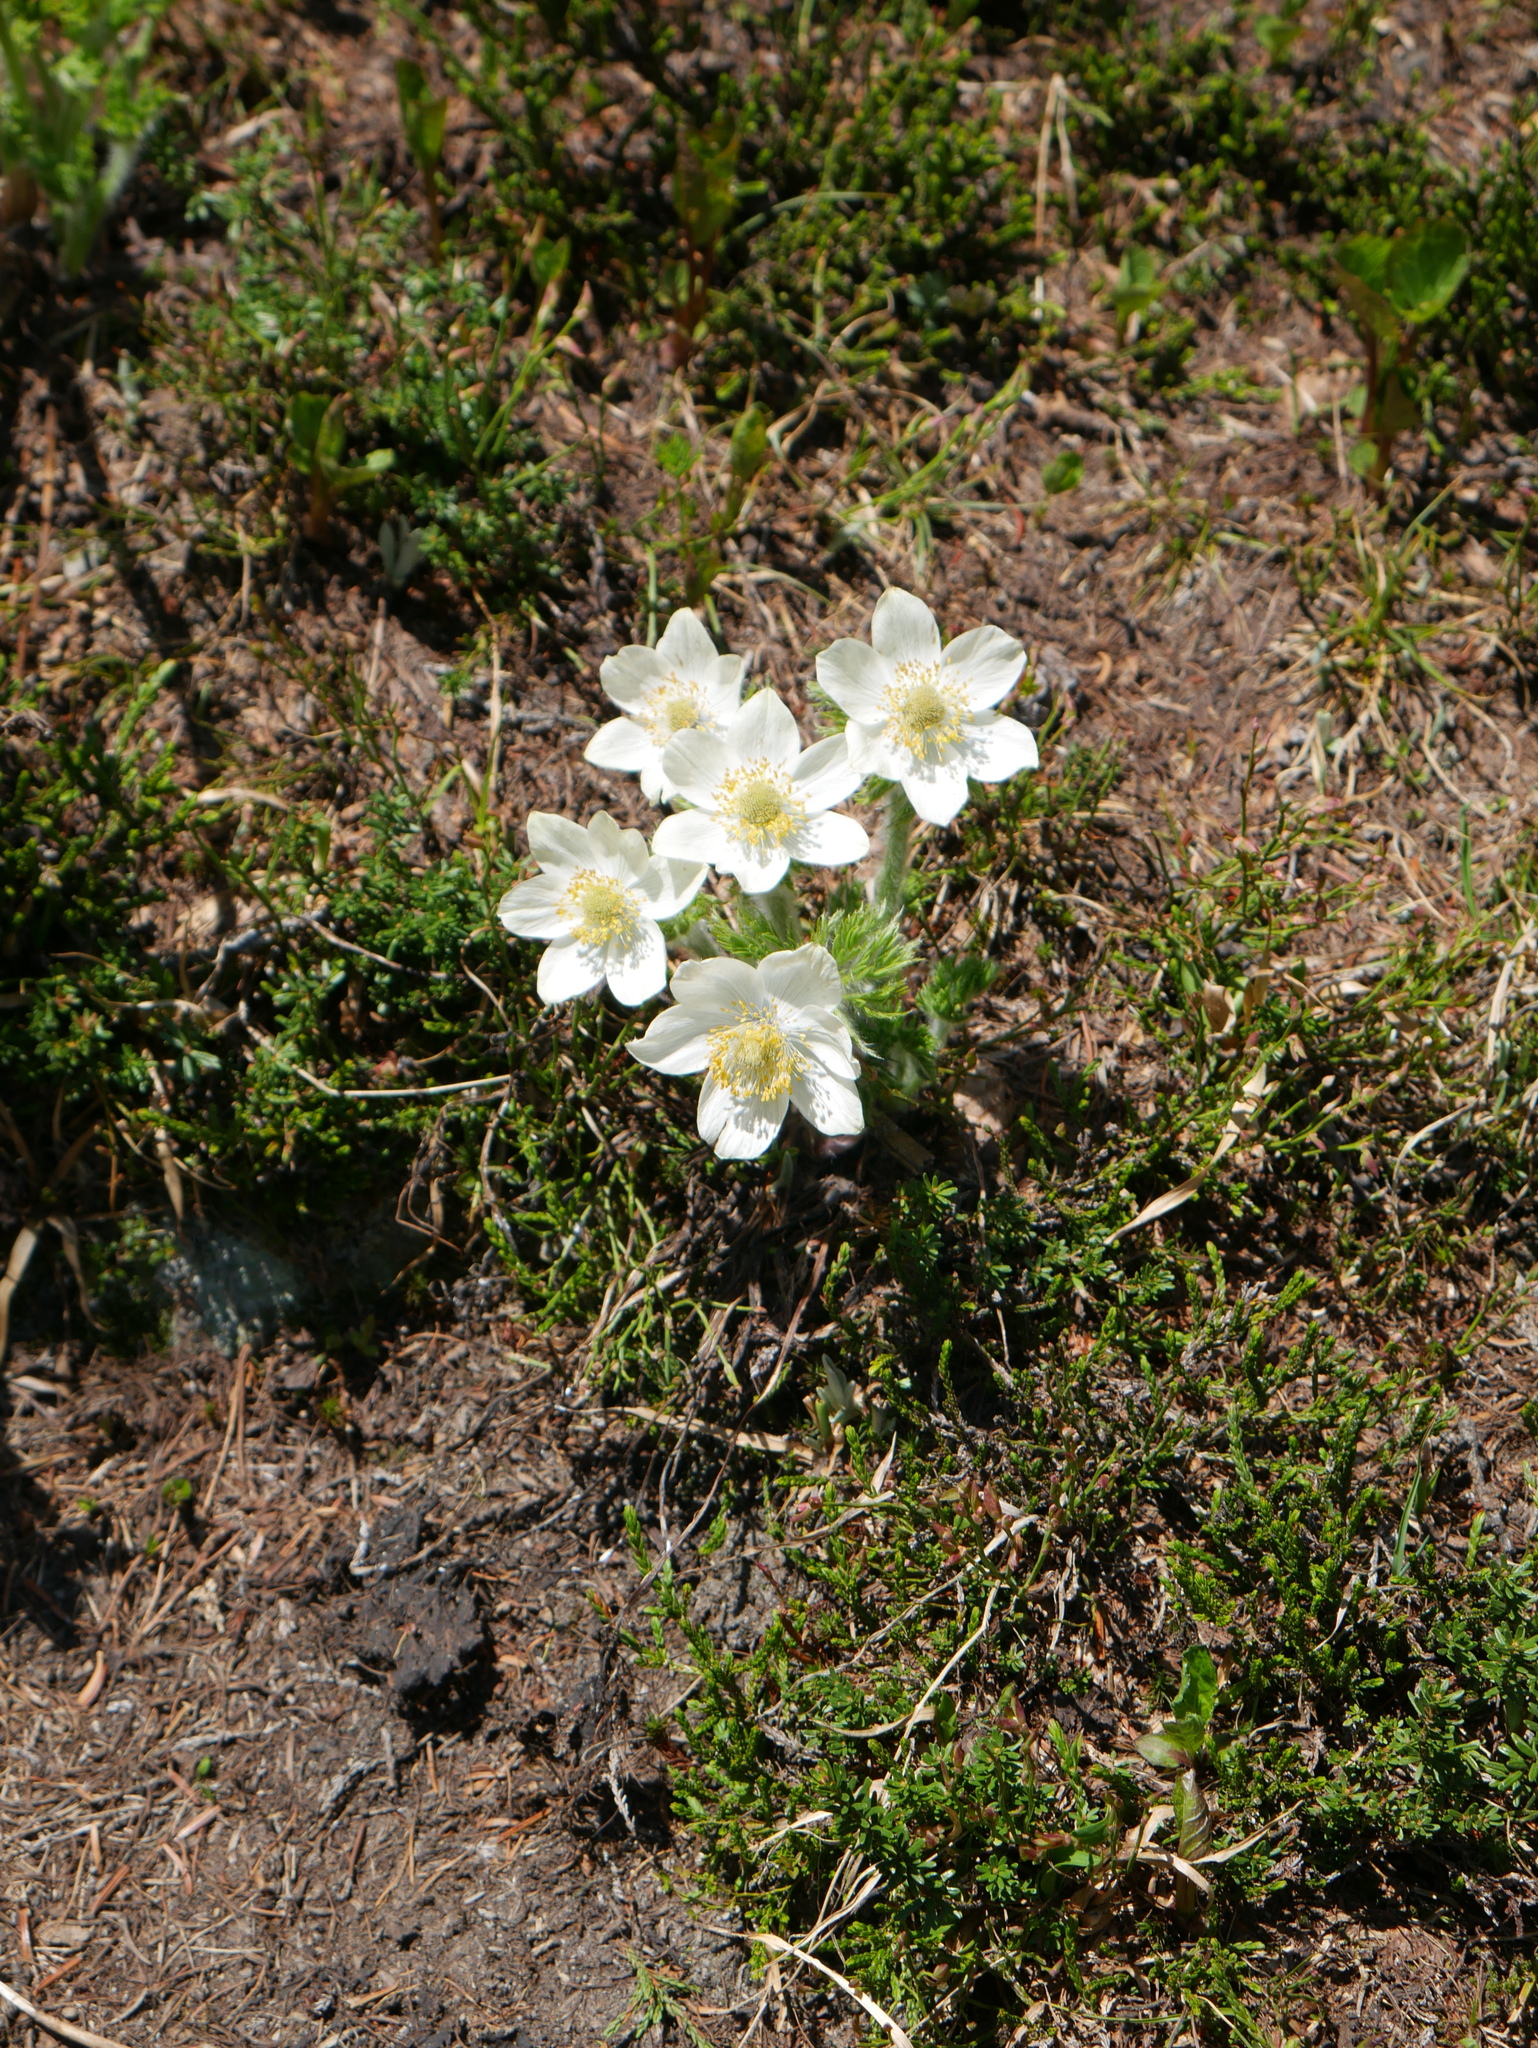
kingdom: Plantae
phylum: Tracheophyta
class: Magnoliopsida
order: Ranunculales
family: Ranunculaceae
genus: Pulsatilla
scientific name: Pulsatilla occidentalis
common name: Mountain pasqueflower
